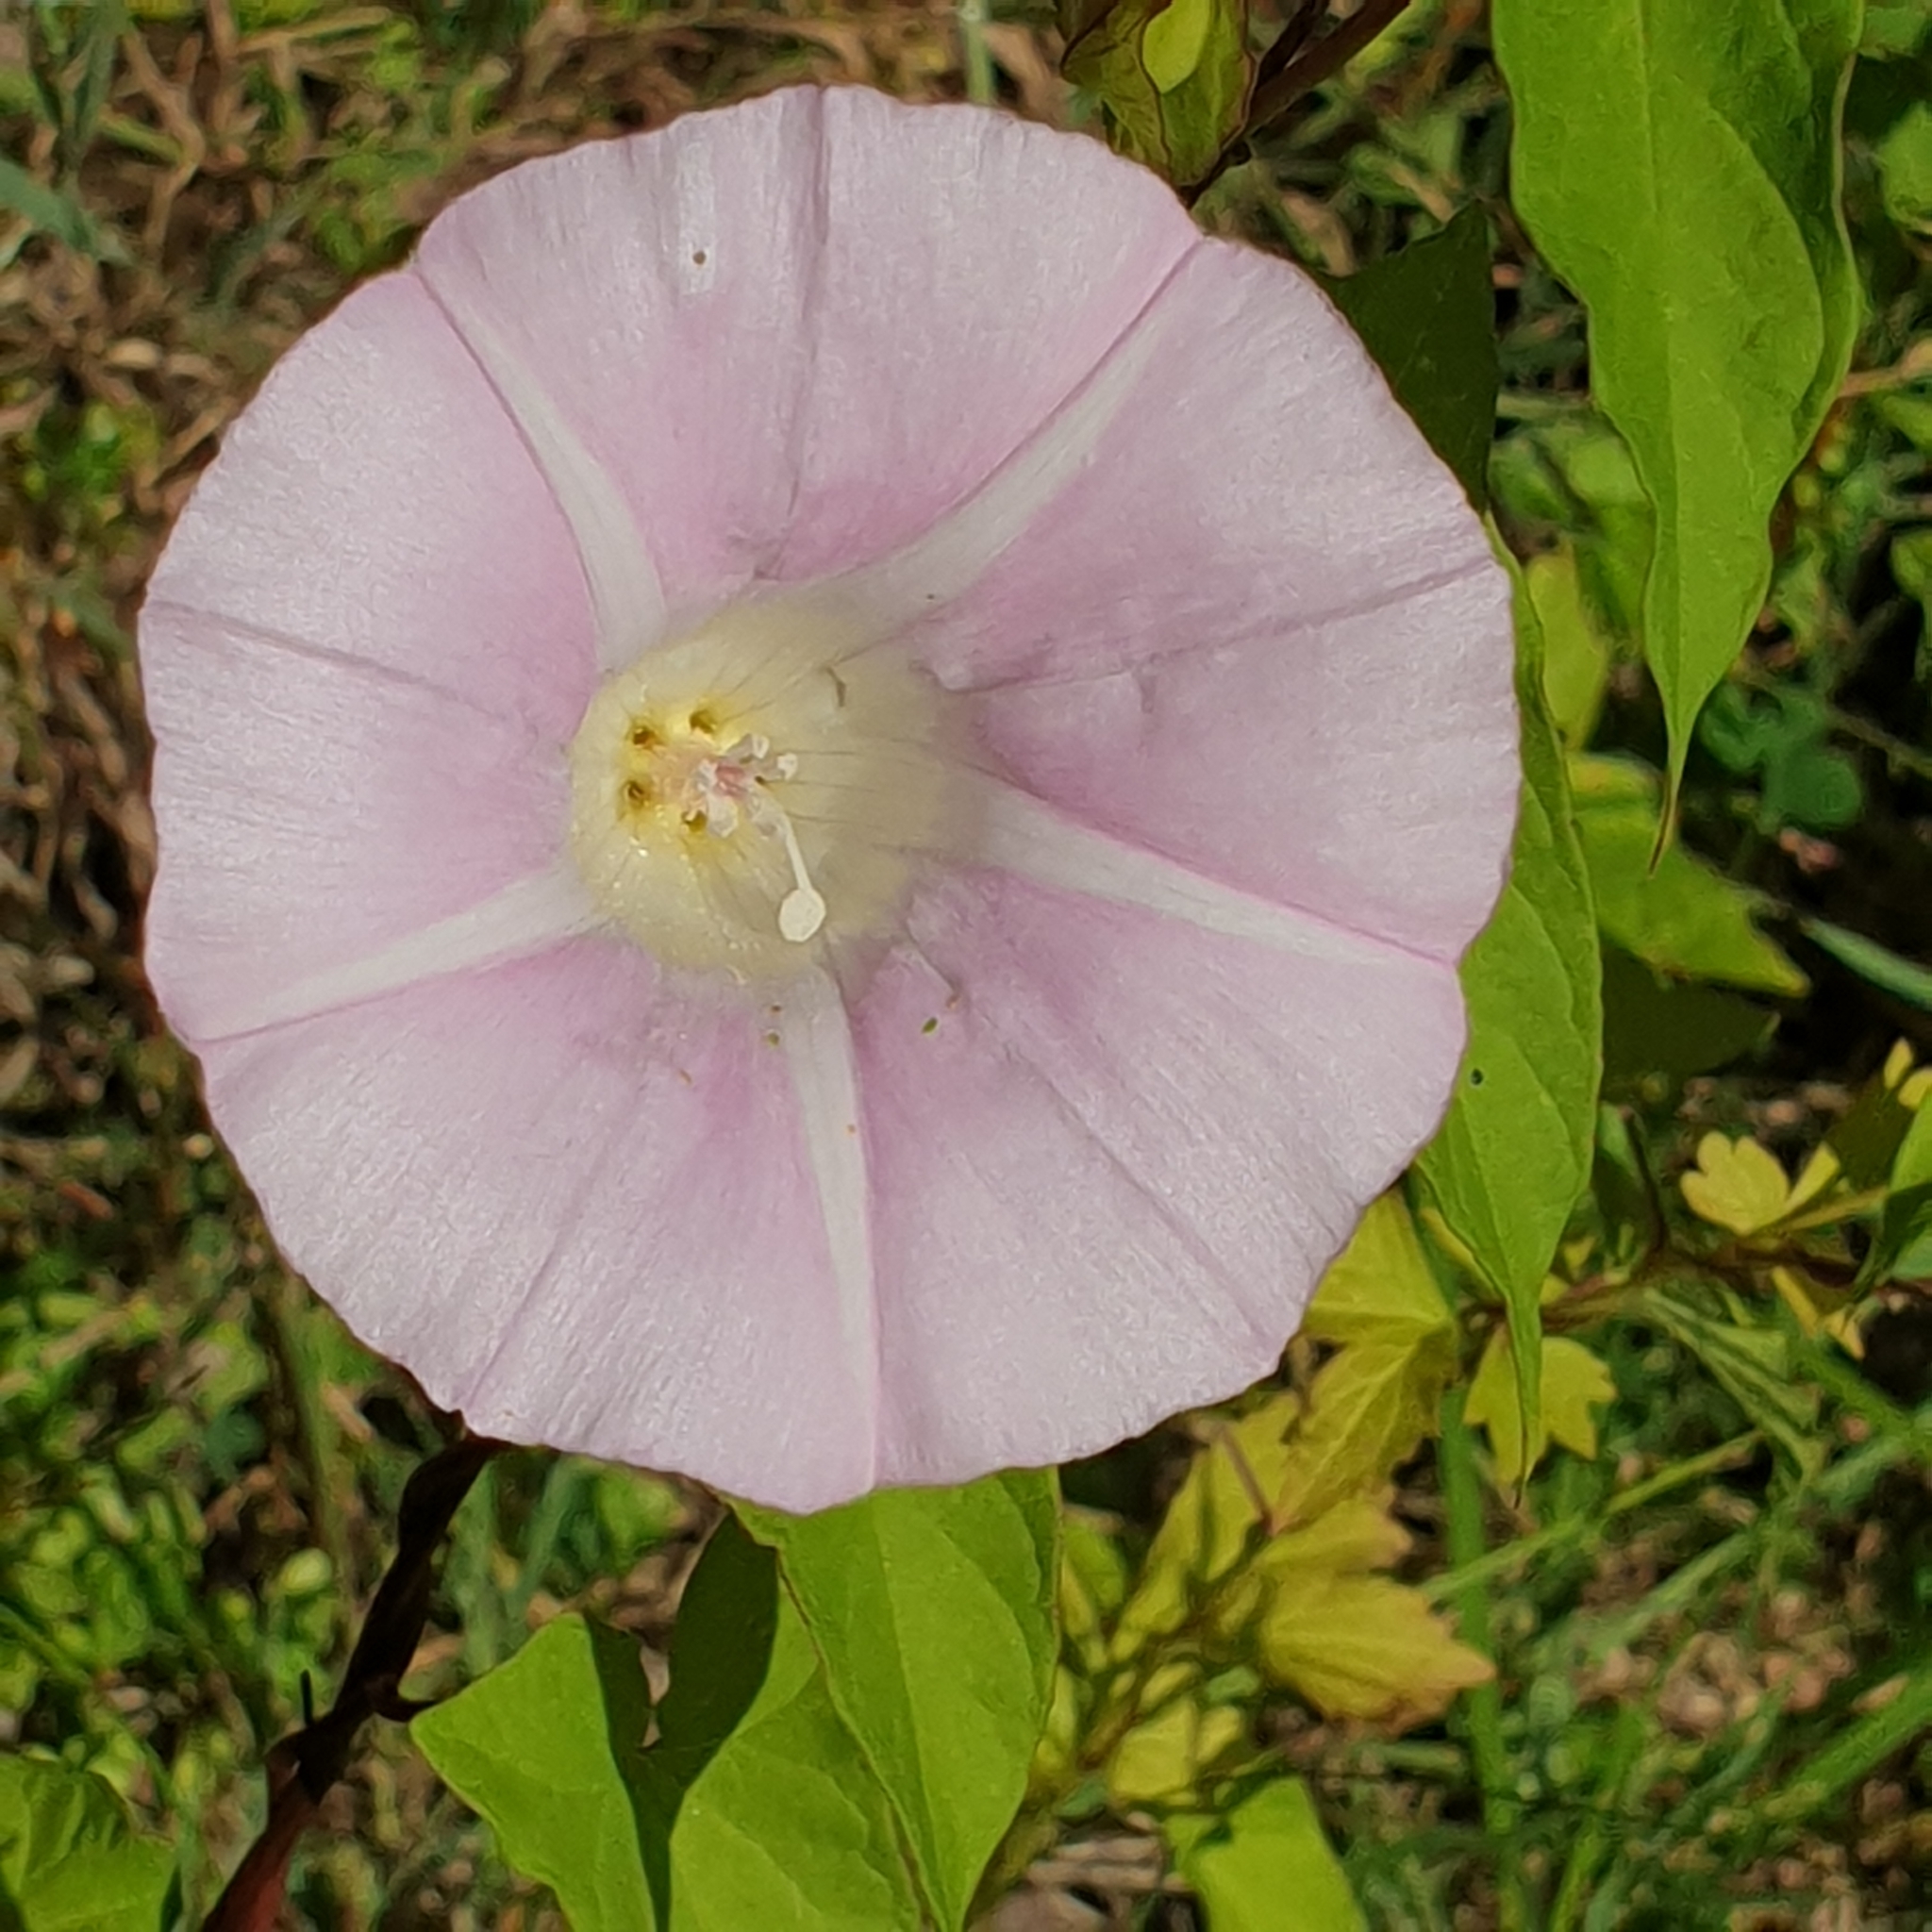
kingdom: Plantae
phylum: Tracheophyta
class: Magnoliopsida
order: Solanales
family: Convolvulaceae
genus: Calystegia
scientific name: Calystegia sepium
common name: Hedge bindweed
